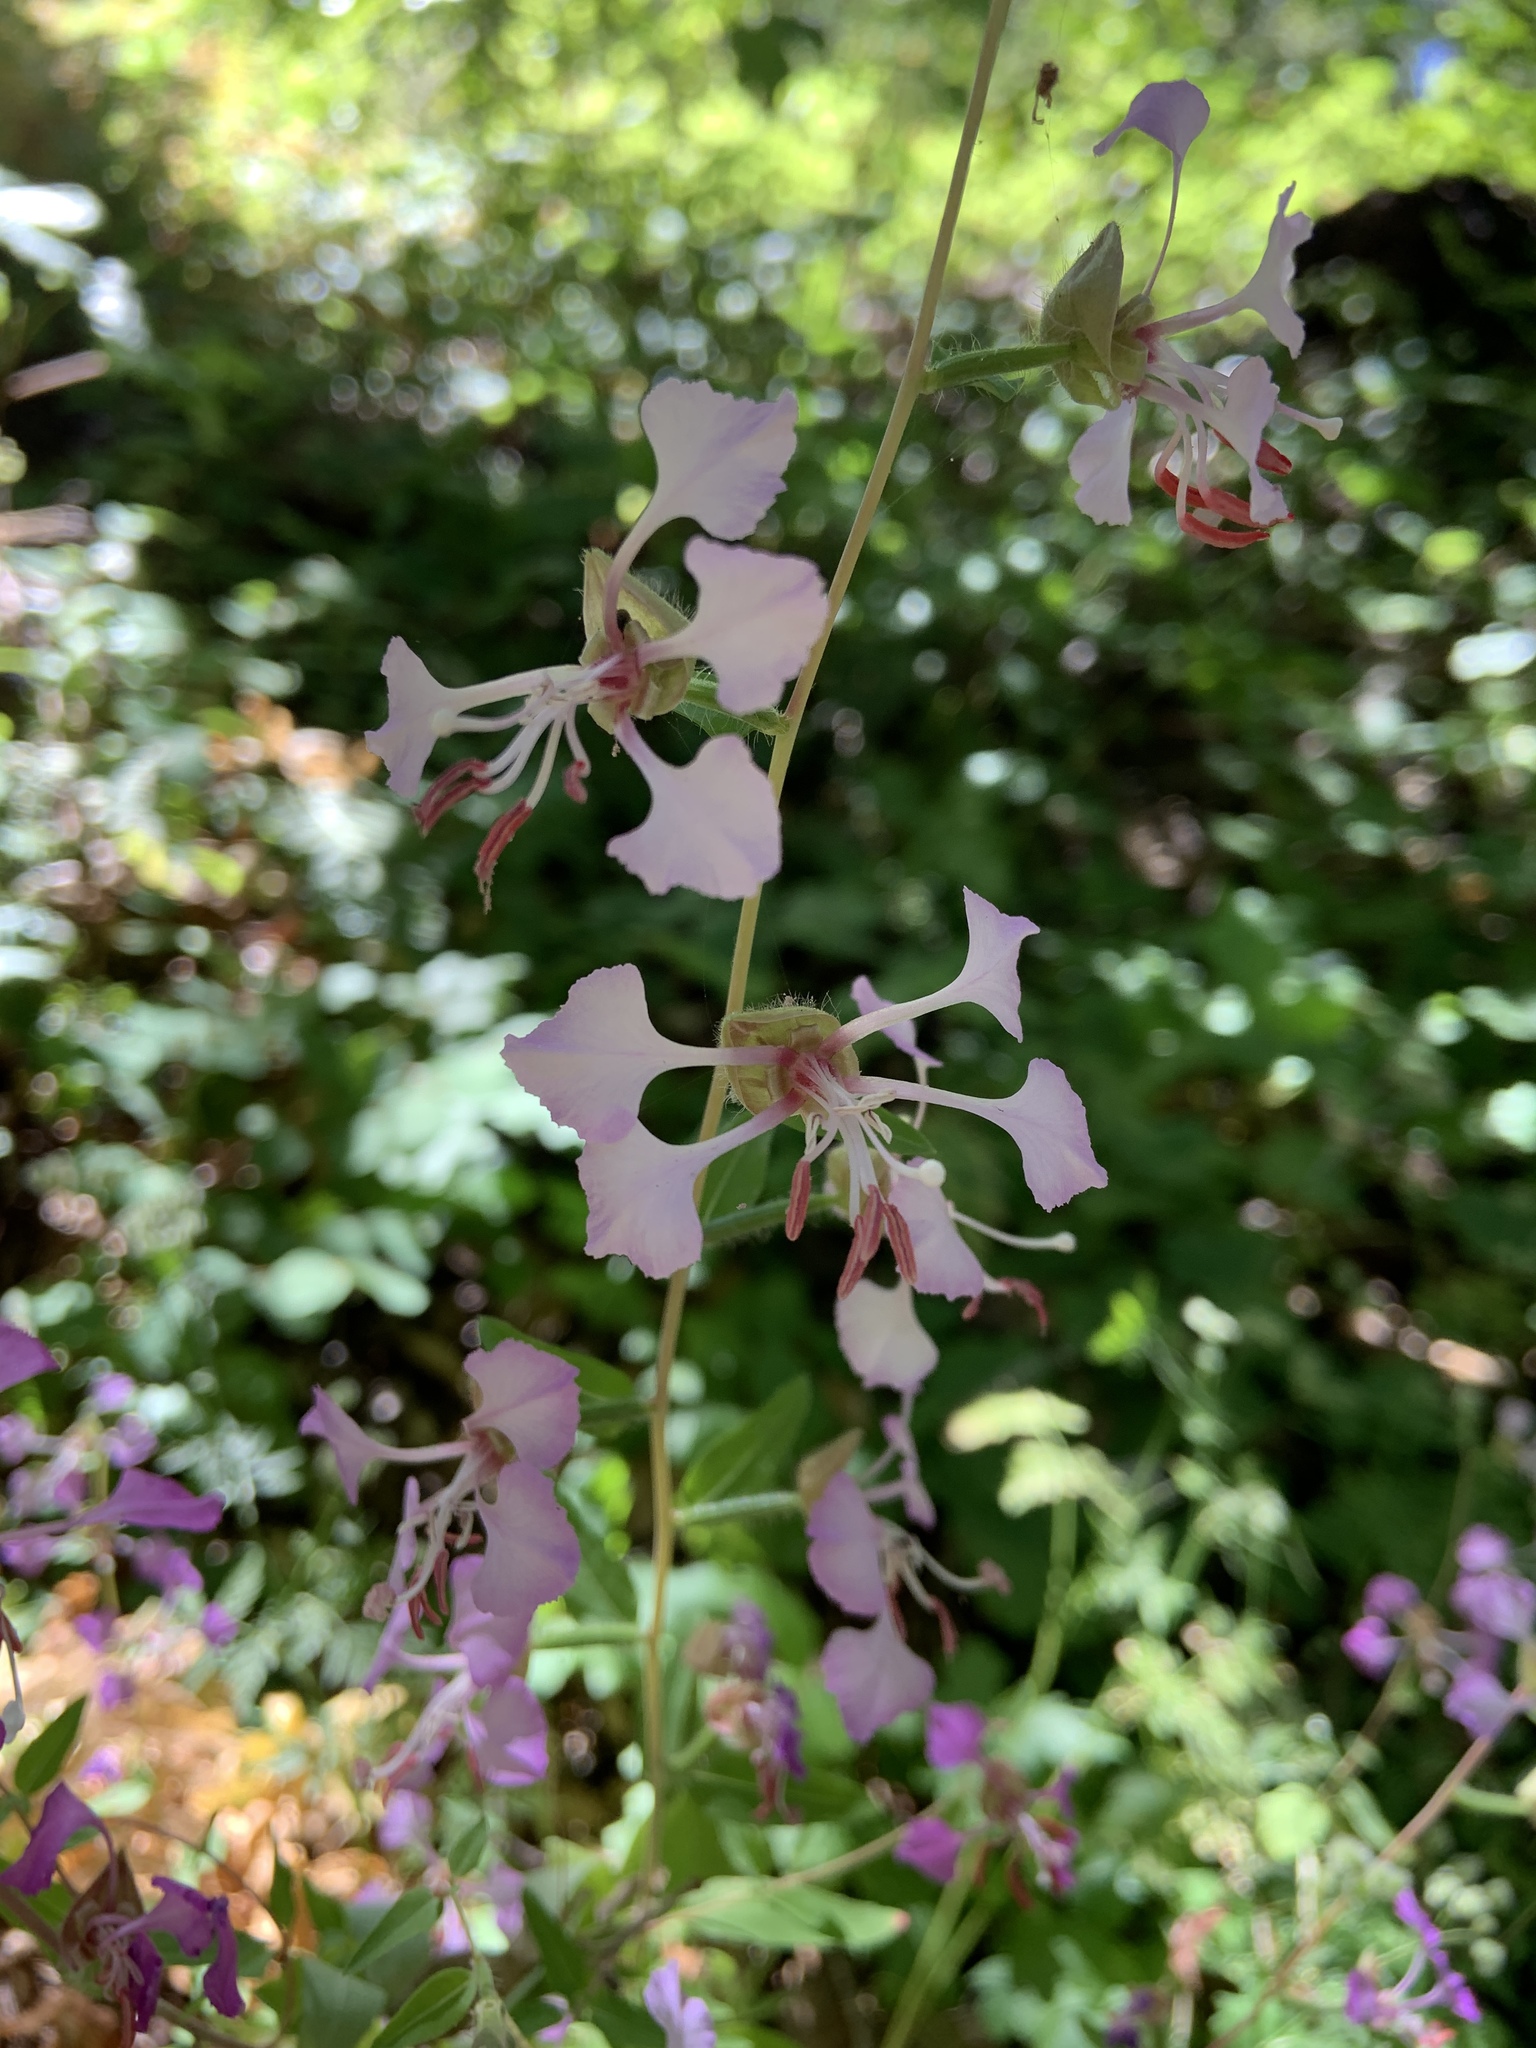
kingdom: Plantae
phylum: Tracheophyta
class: Magnoliopsida
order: Myrtales
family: Onagraceae
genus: Clarkia
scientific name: Clarkia unguiculata
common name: Clarkia
